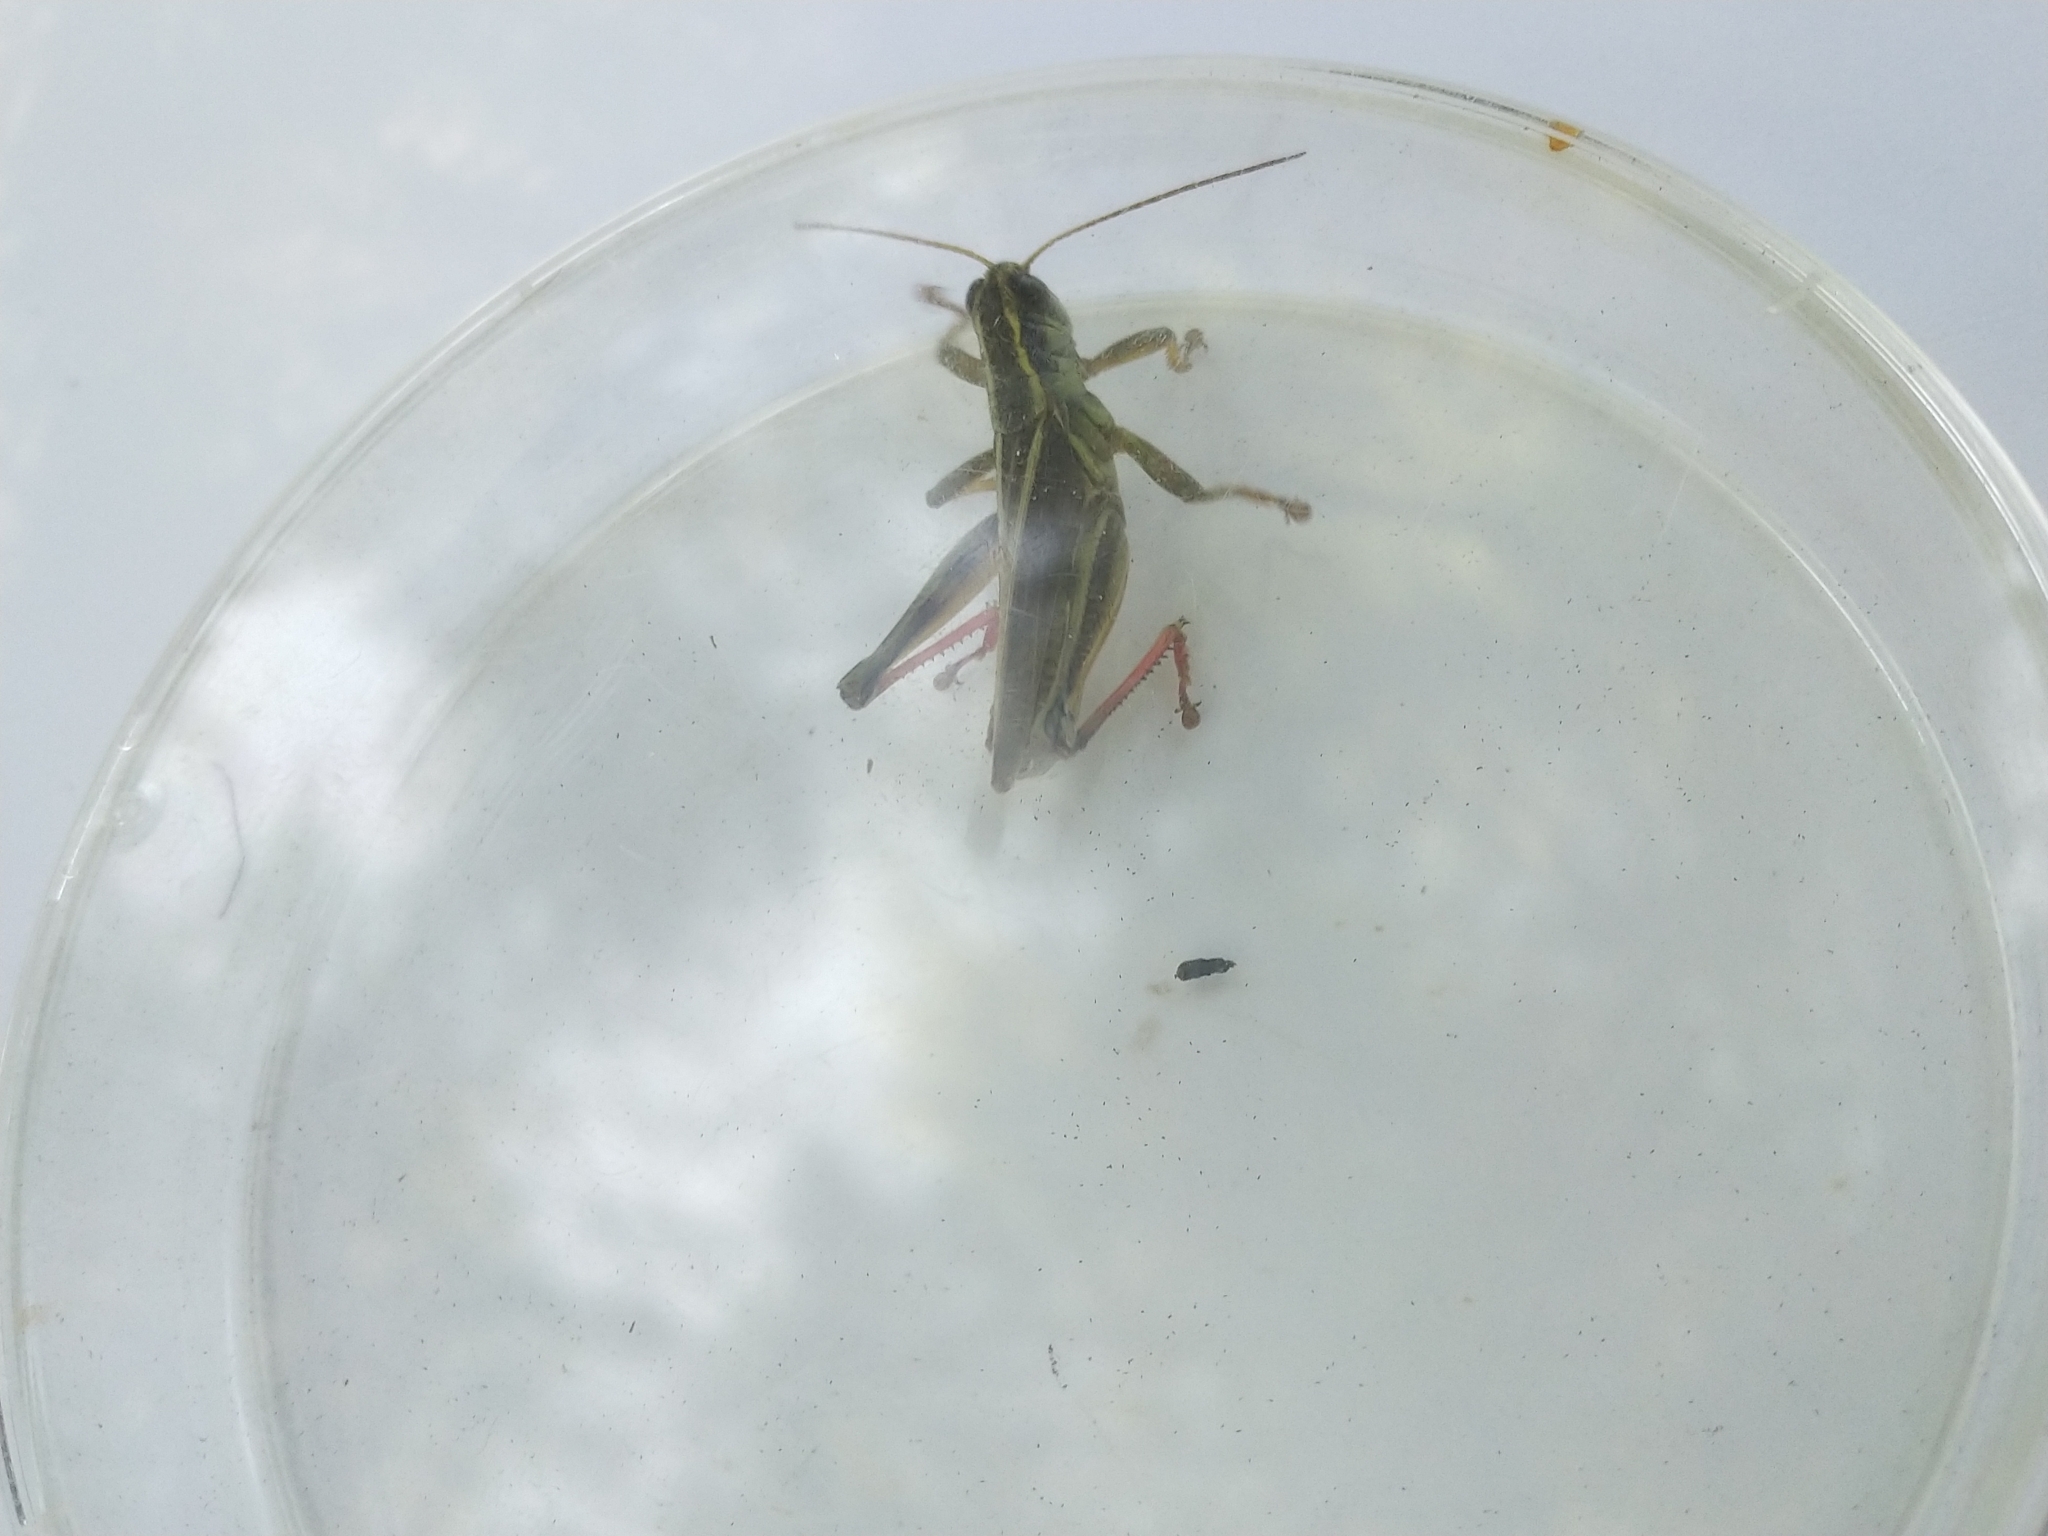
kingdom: Animalia
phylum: Arthropoda
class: Insecta
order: Orthoptera
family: Acrididae
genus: Melanoplus
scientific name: Melanoplus bivittatus
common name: Two-striped grasshopper
